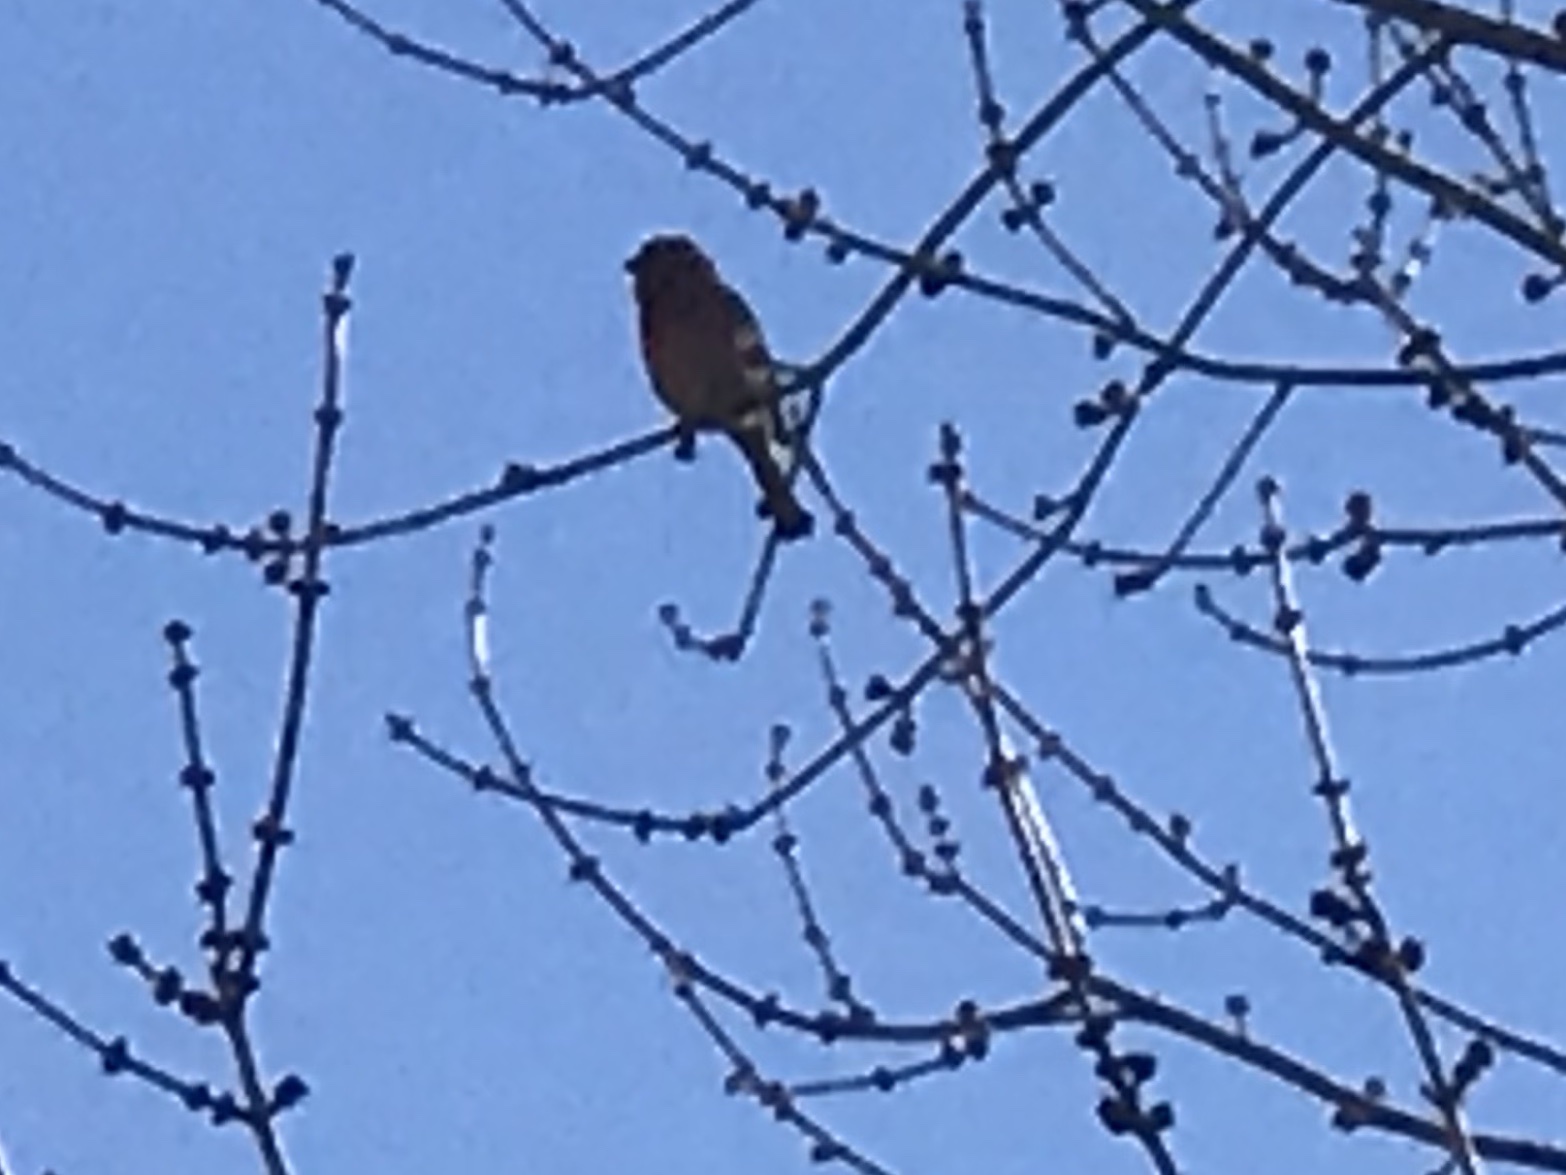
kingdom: Animalia
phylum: Chordata
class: Aves
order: Passeriformes
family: Fringillidae
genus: Haemorhous
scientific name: Haemorhous mexicanus
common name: House finch
